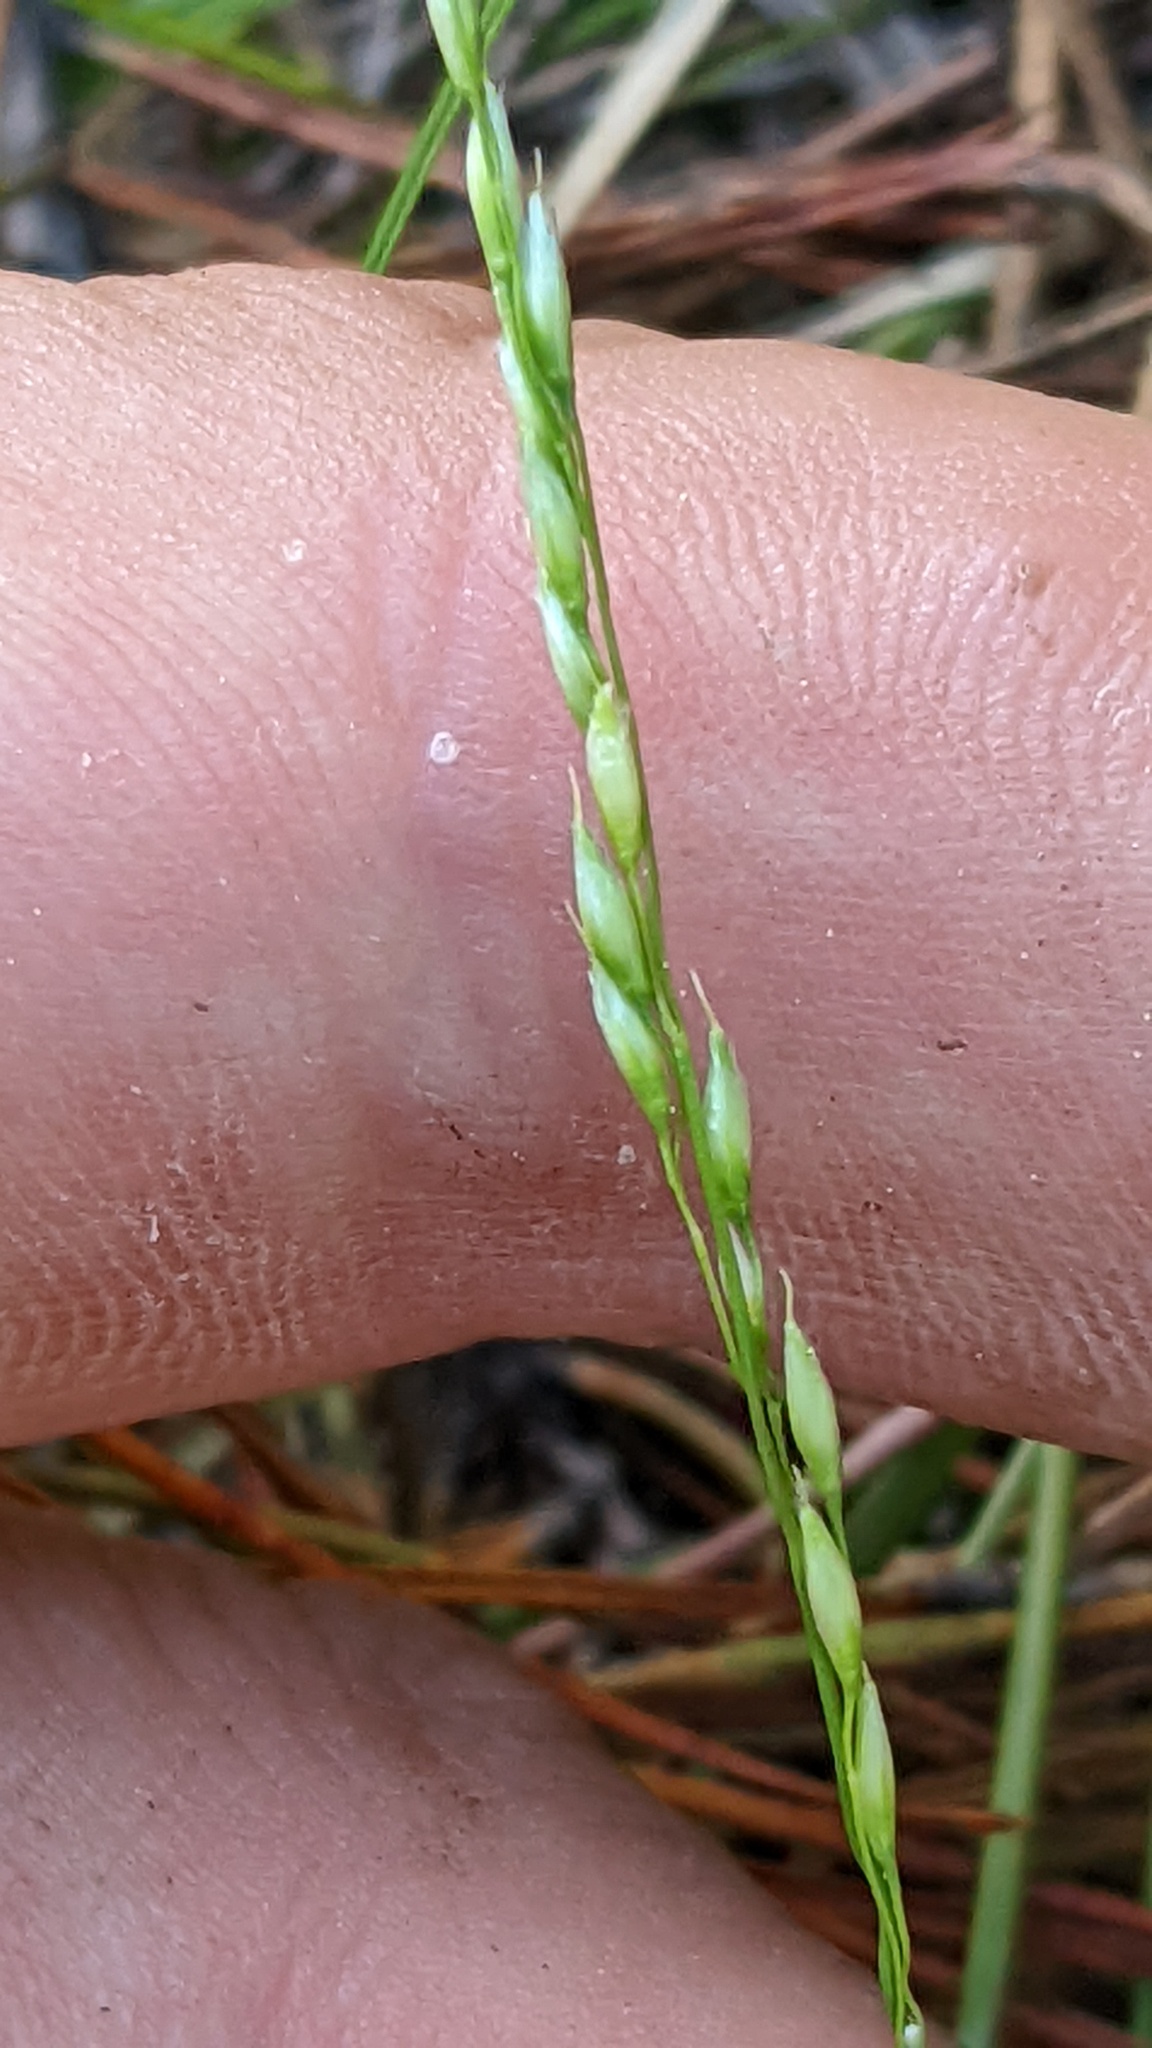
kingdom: Plantae
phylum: Tracheophyta
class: Liliopsida
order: Poales
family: Poaceae
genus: Piptatheropsis
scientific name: Piptatheropsis pungens
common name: Northern ricegrass
